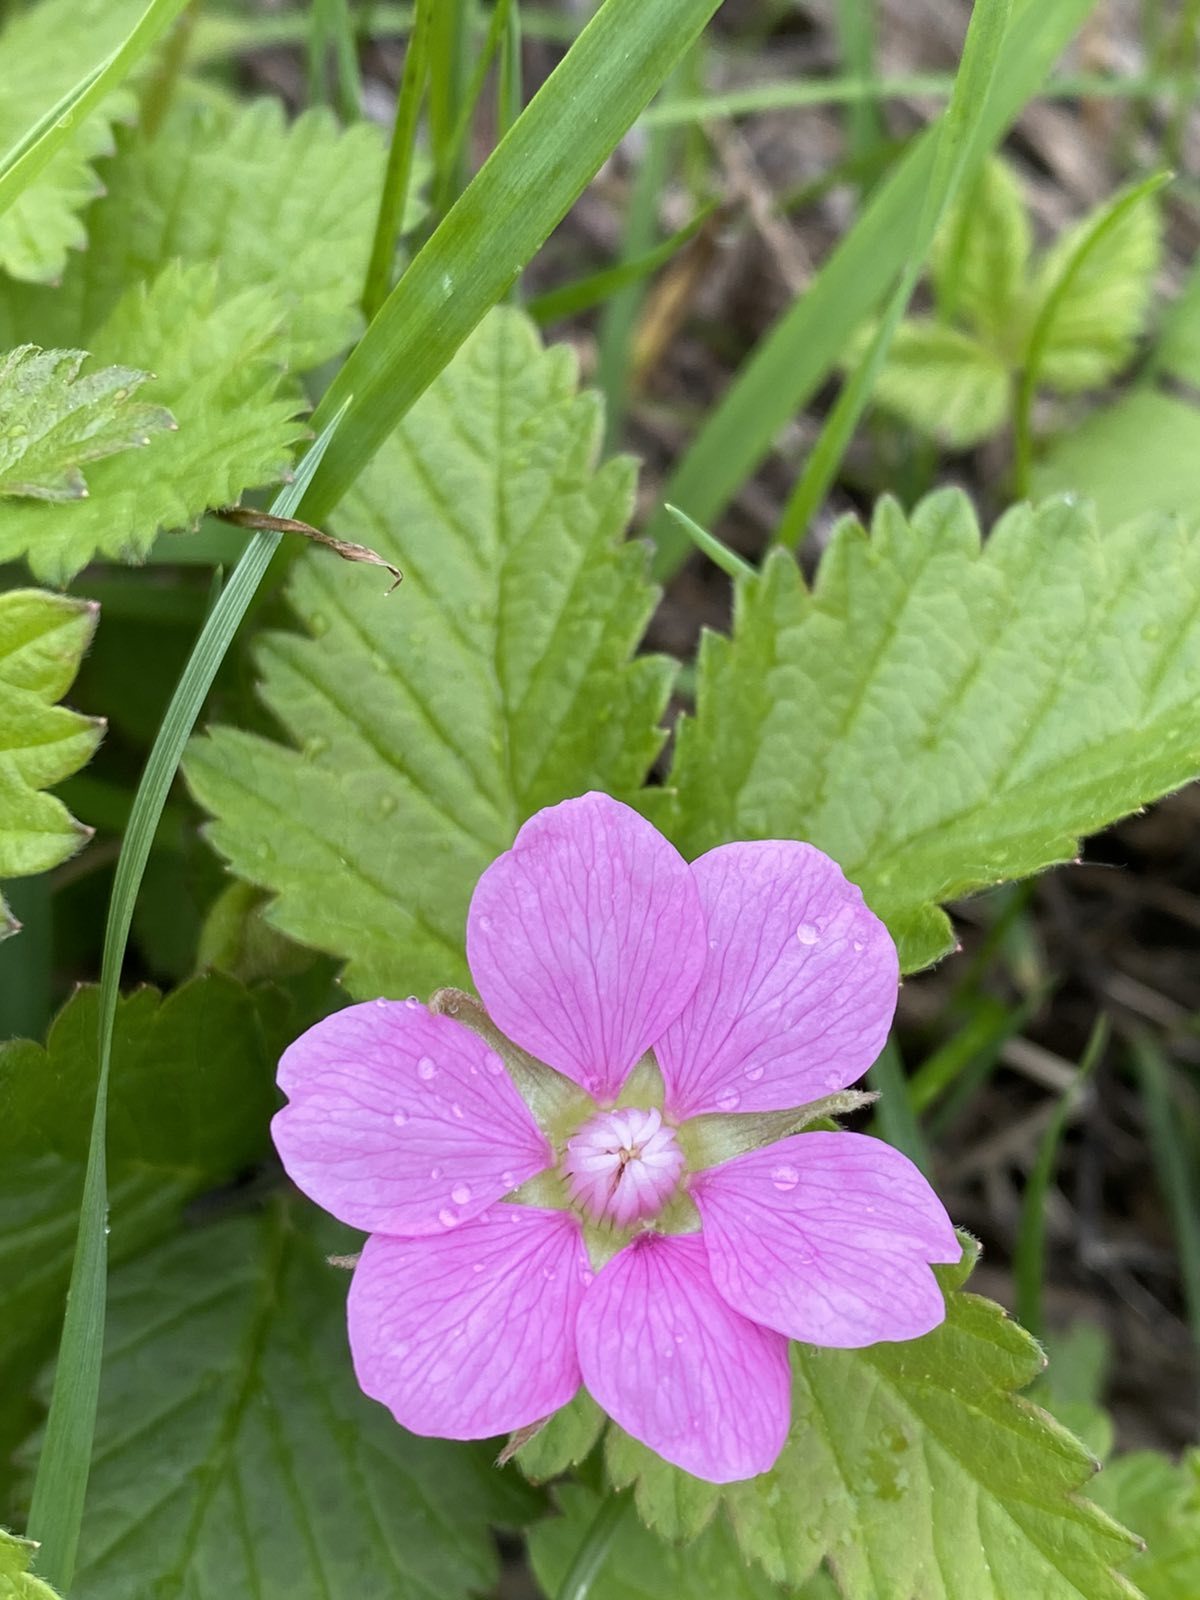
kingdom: Plantae
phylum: Tracheophyta
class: Magnoliopsida
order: Rosales
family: Rosaceae
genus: Rubus
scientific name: Rubus arcticus
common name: Arctic bramble
